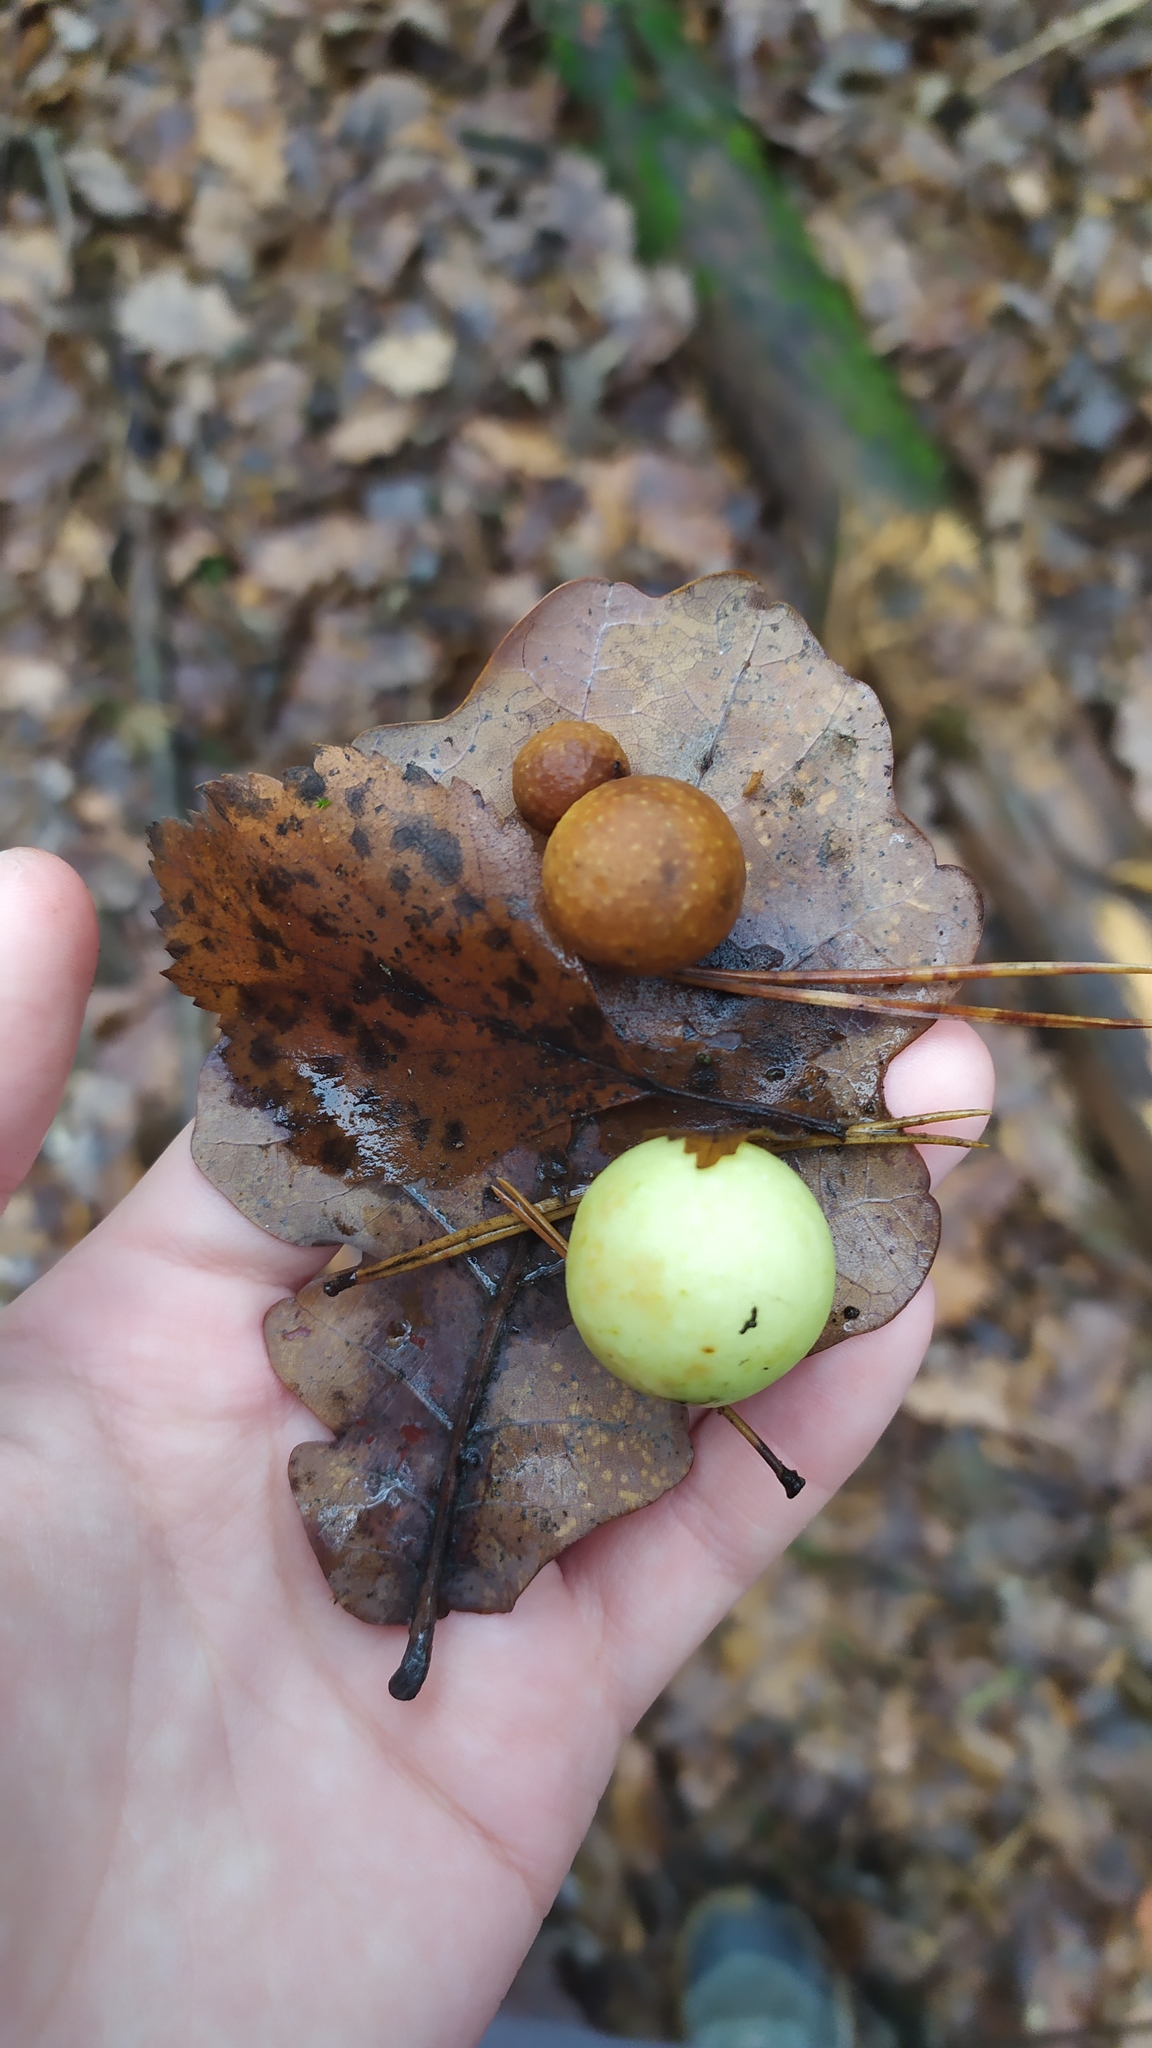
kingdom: Animalia
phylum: Arthropoda
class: Insecta
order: Hymenoptera
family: Cynipidae
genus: Cynips
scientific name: Cynips quercusfolii
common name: Cherry gall
